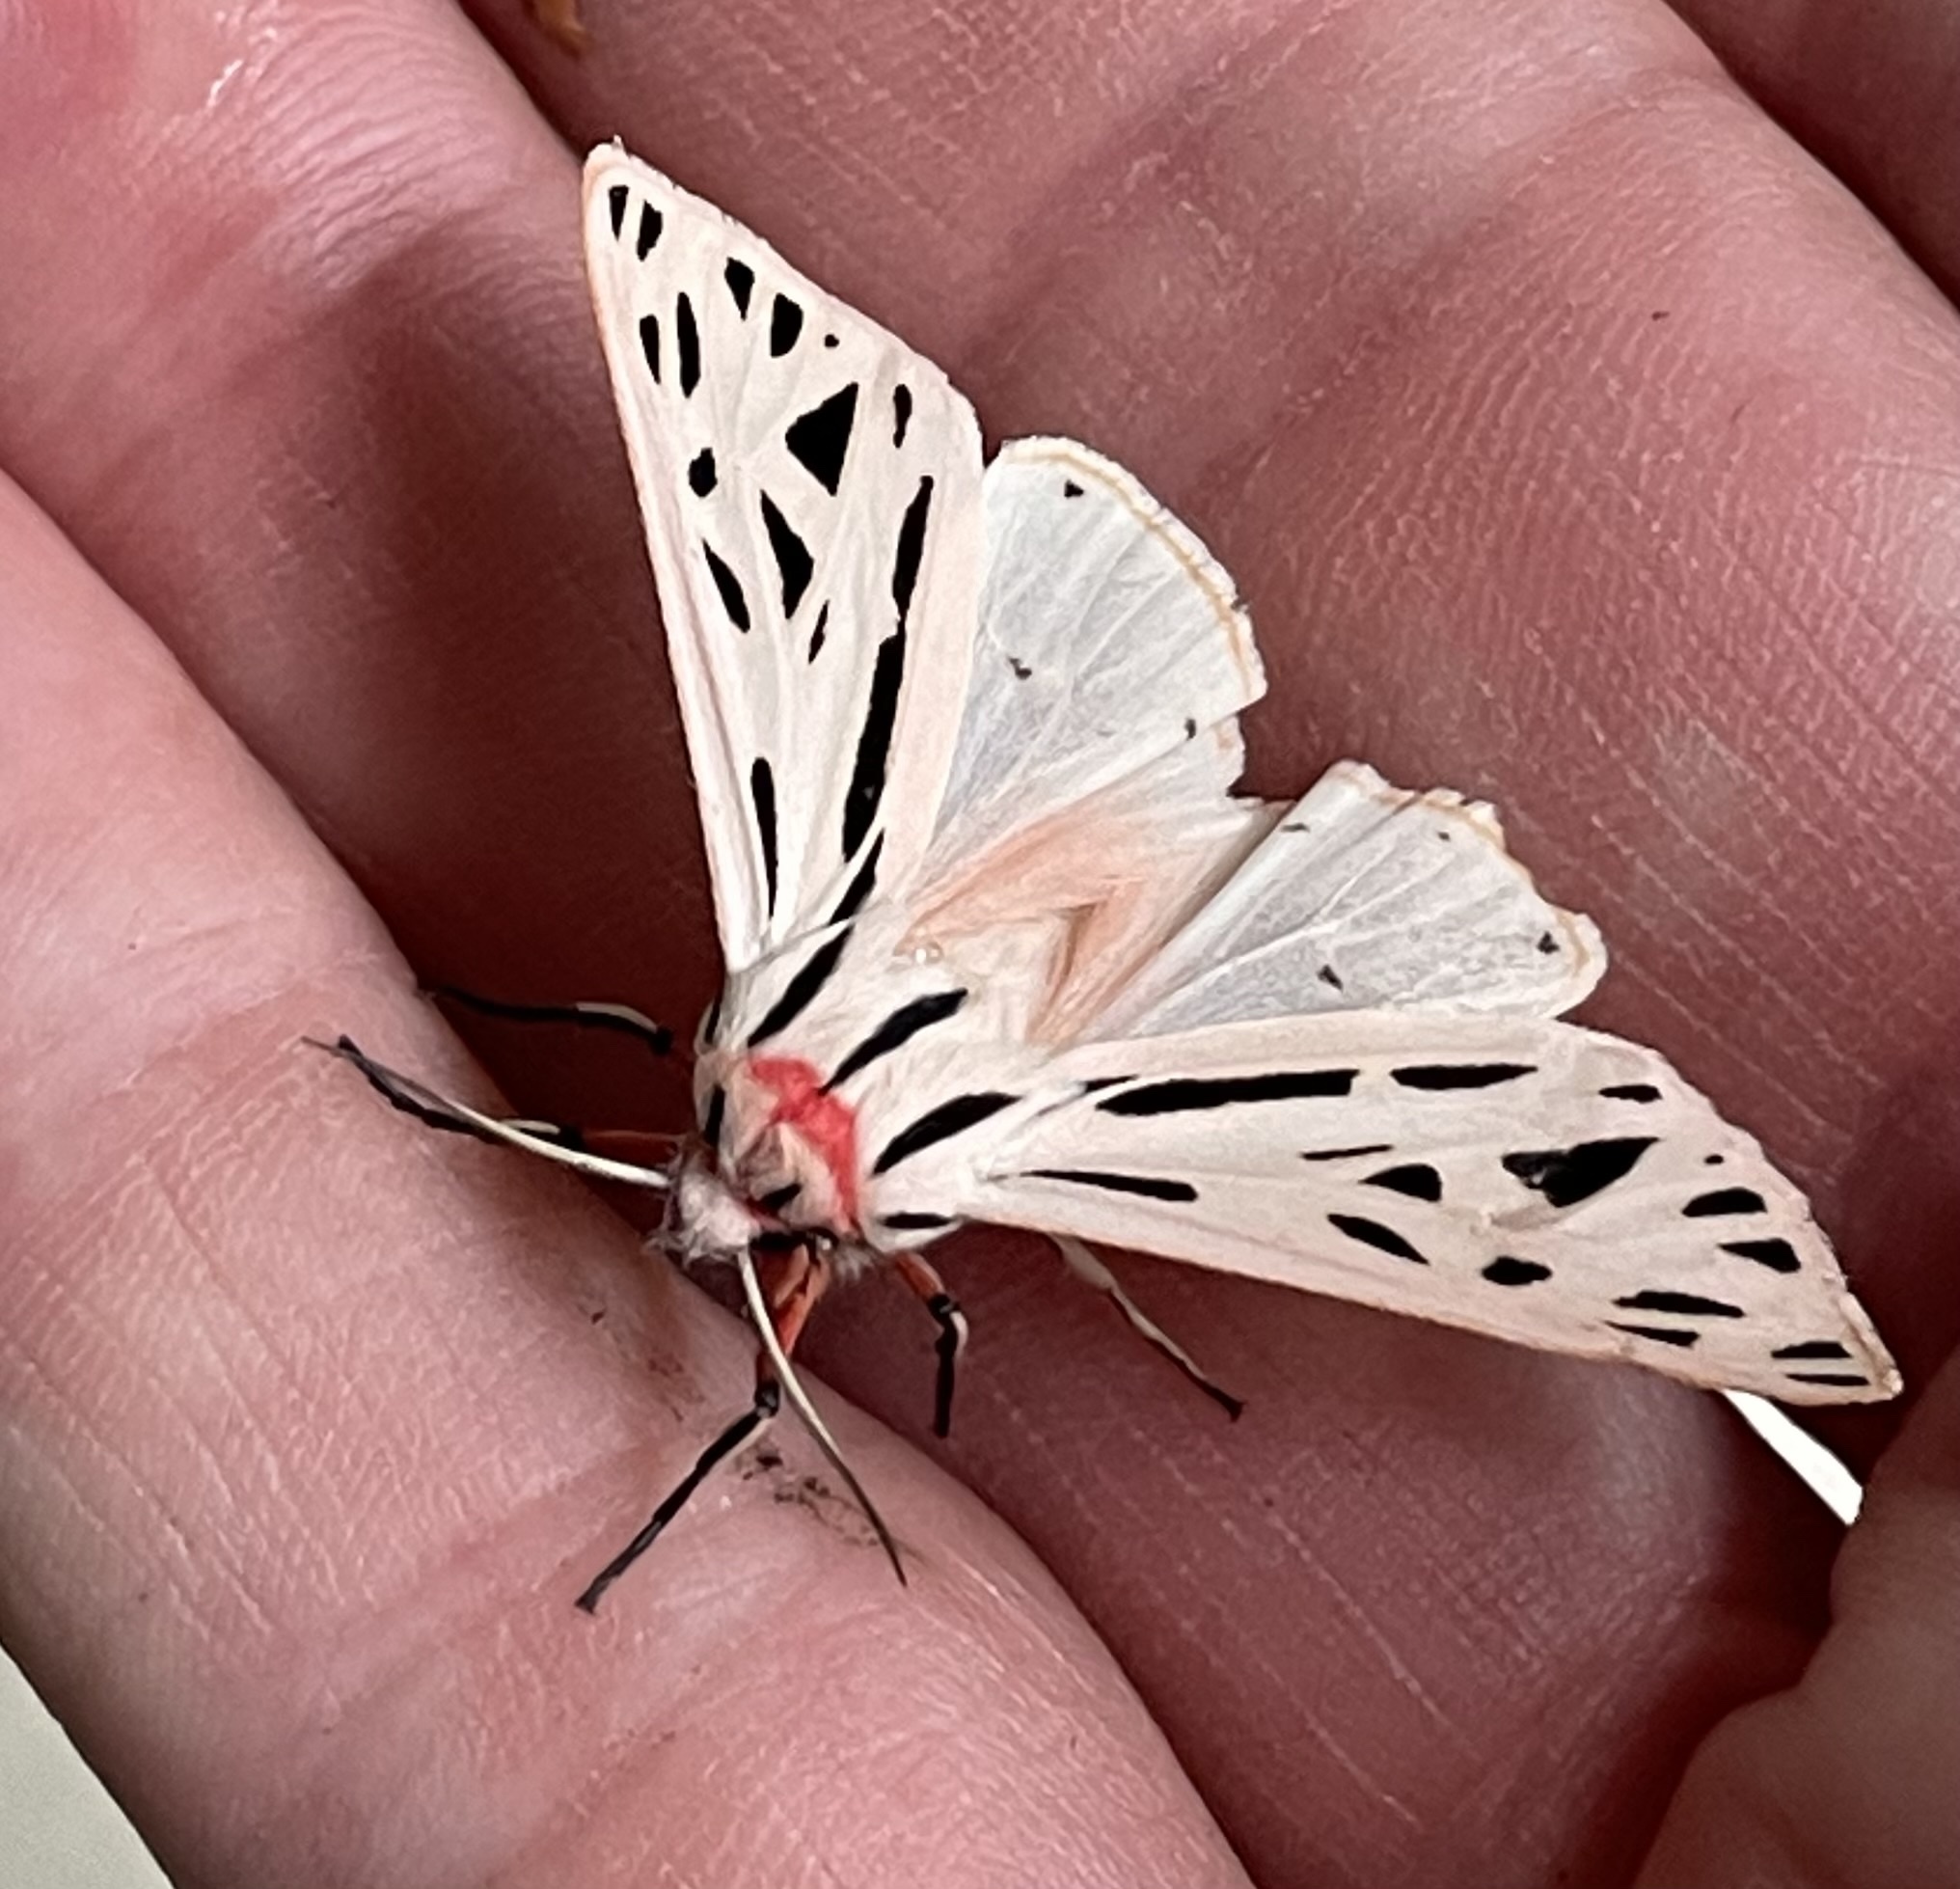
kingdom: Animalia
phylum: Arthropoda
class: Insecta
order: Lepidoptera
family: Erebidae
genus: Apantesis
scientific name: Apantesis arge
